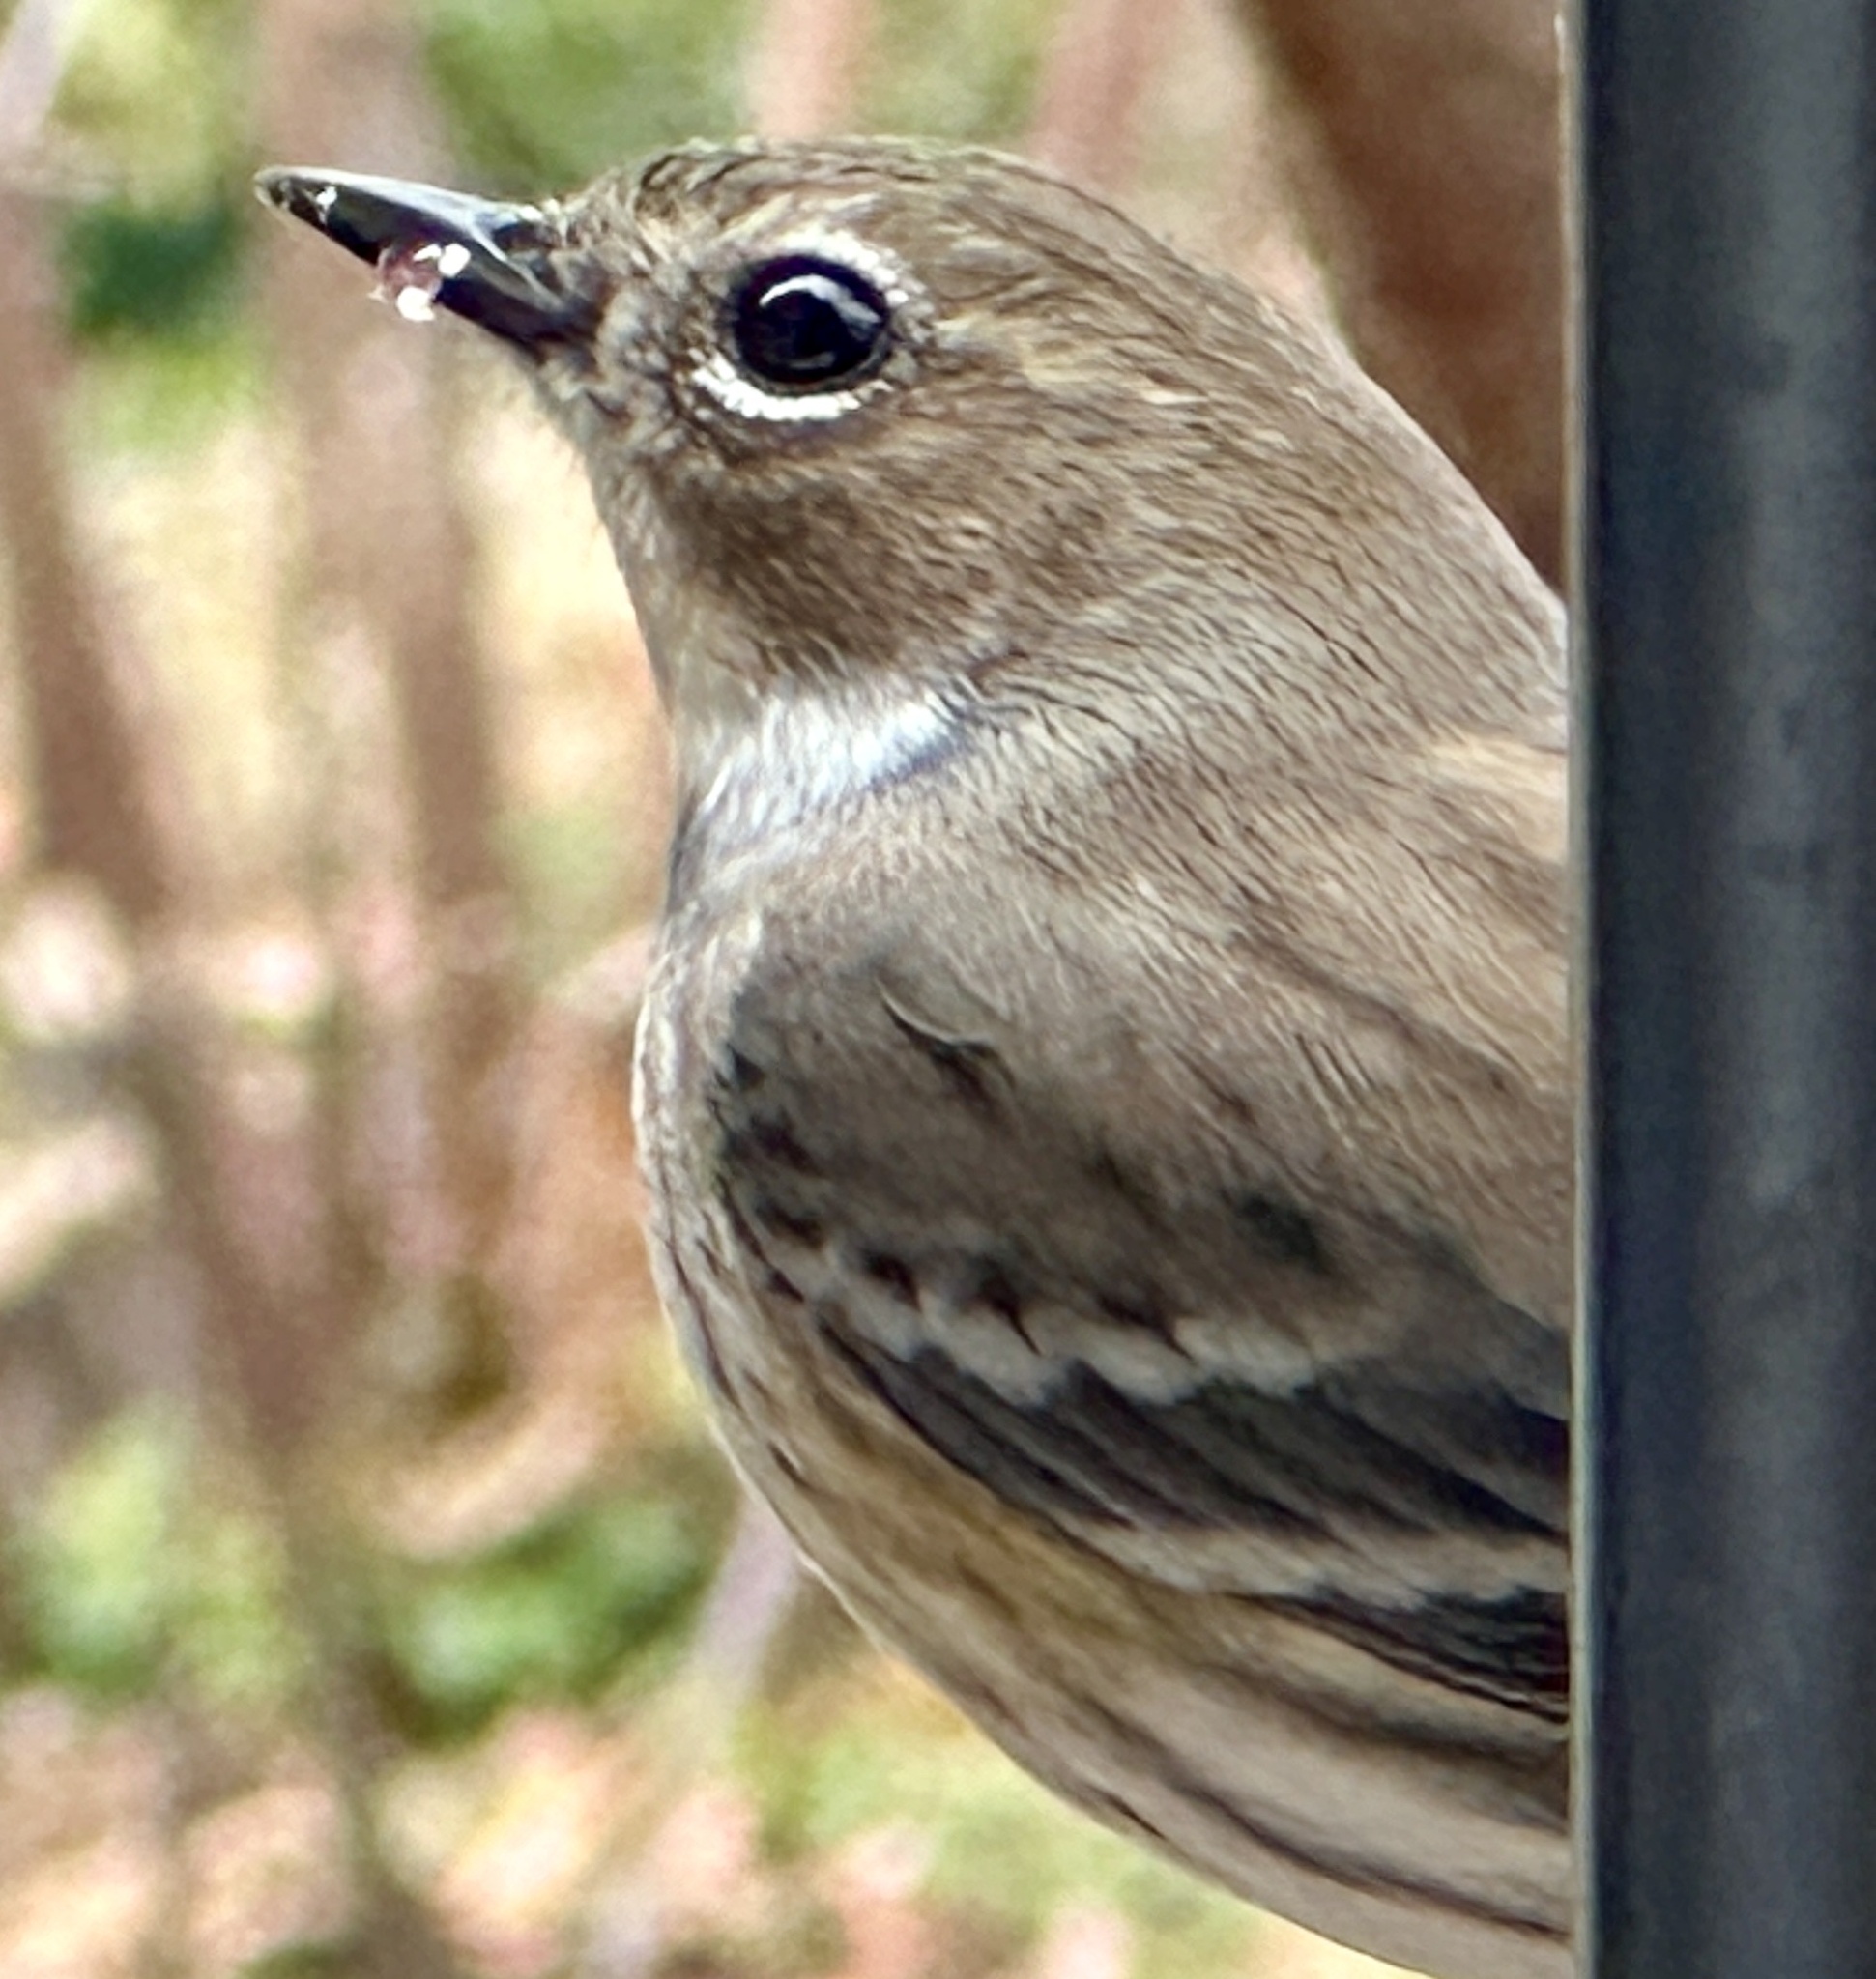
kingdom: Animalia
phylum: Chordata
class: Aves
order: Passeriformes
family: Parulidae
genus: Setophaga
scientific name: Setophaga coronata
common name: Myrtle warbler
